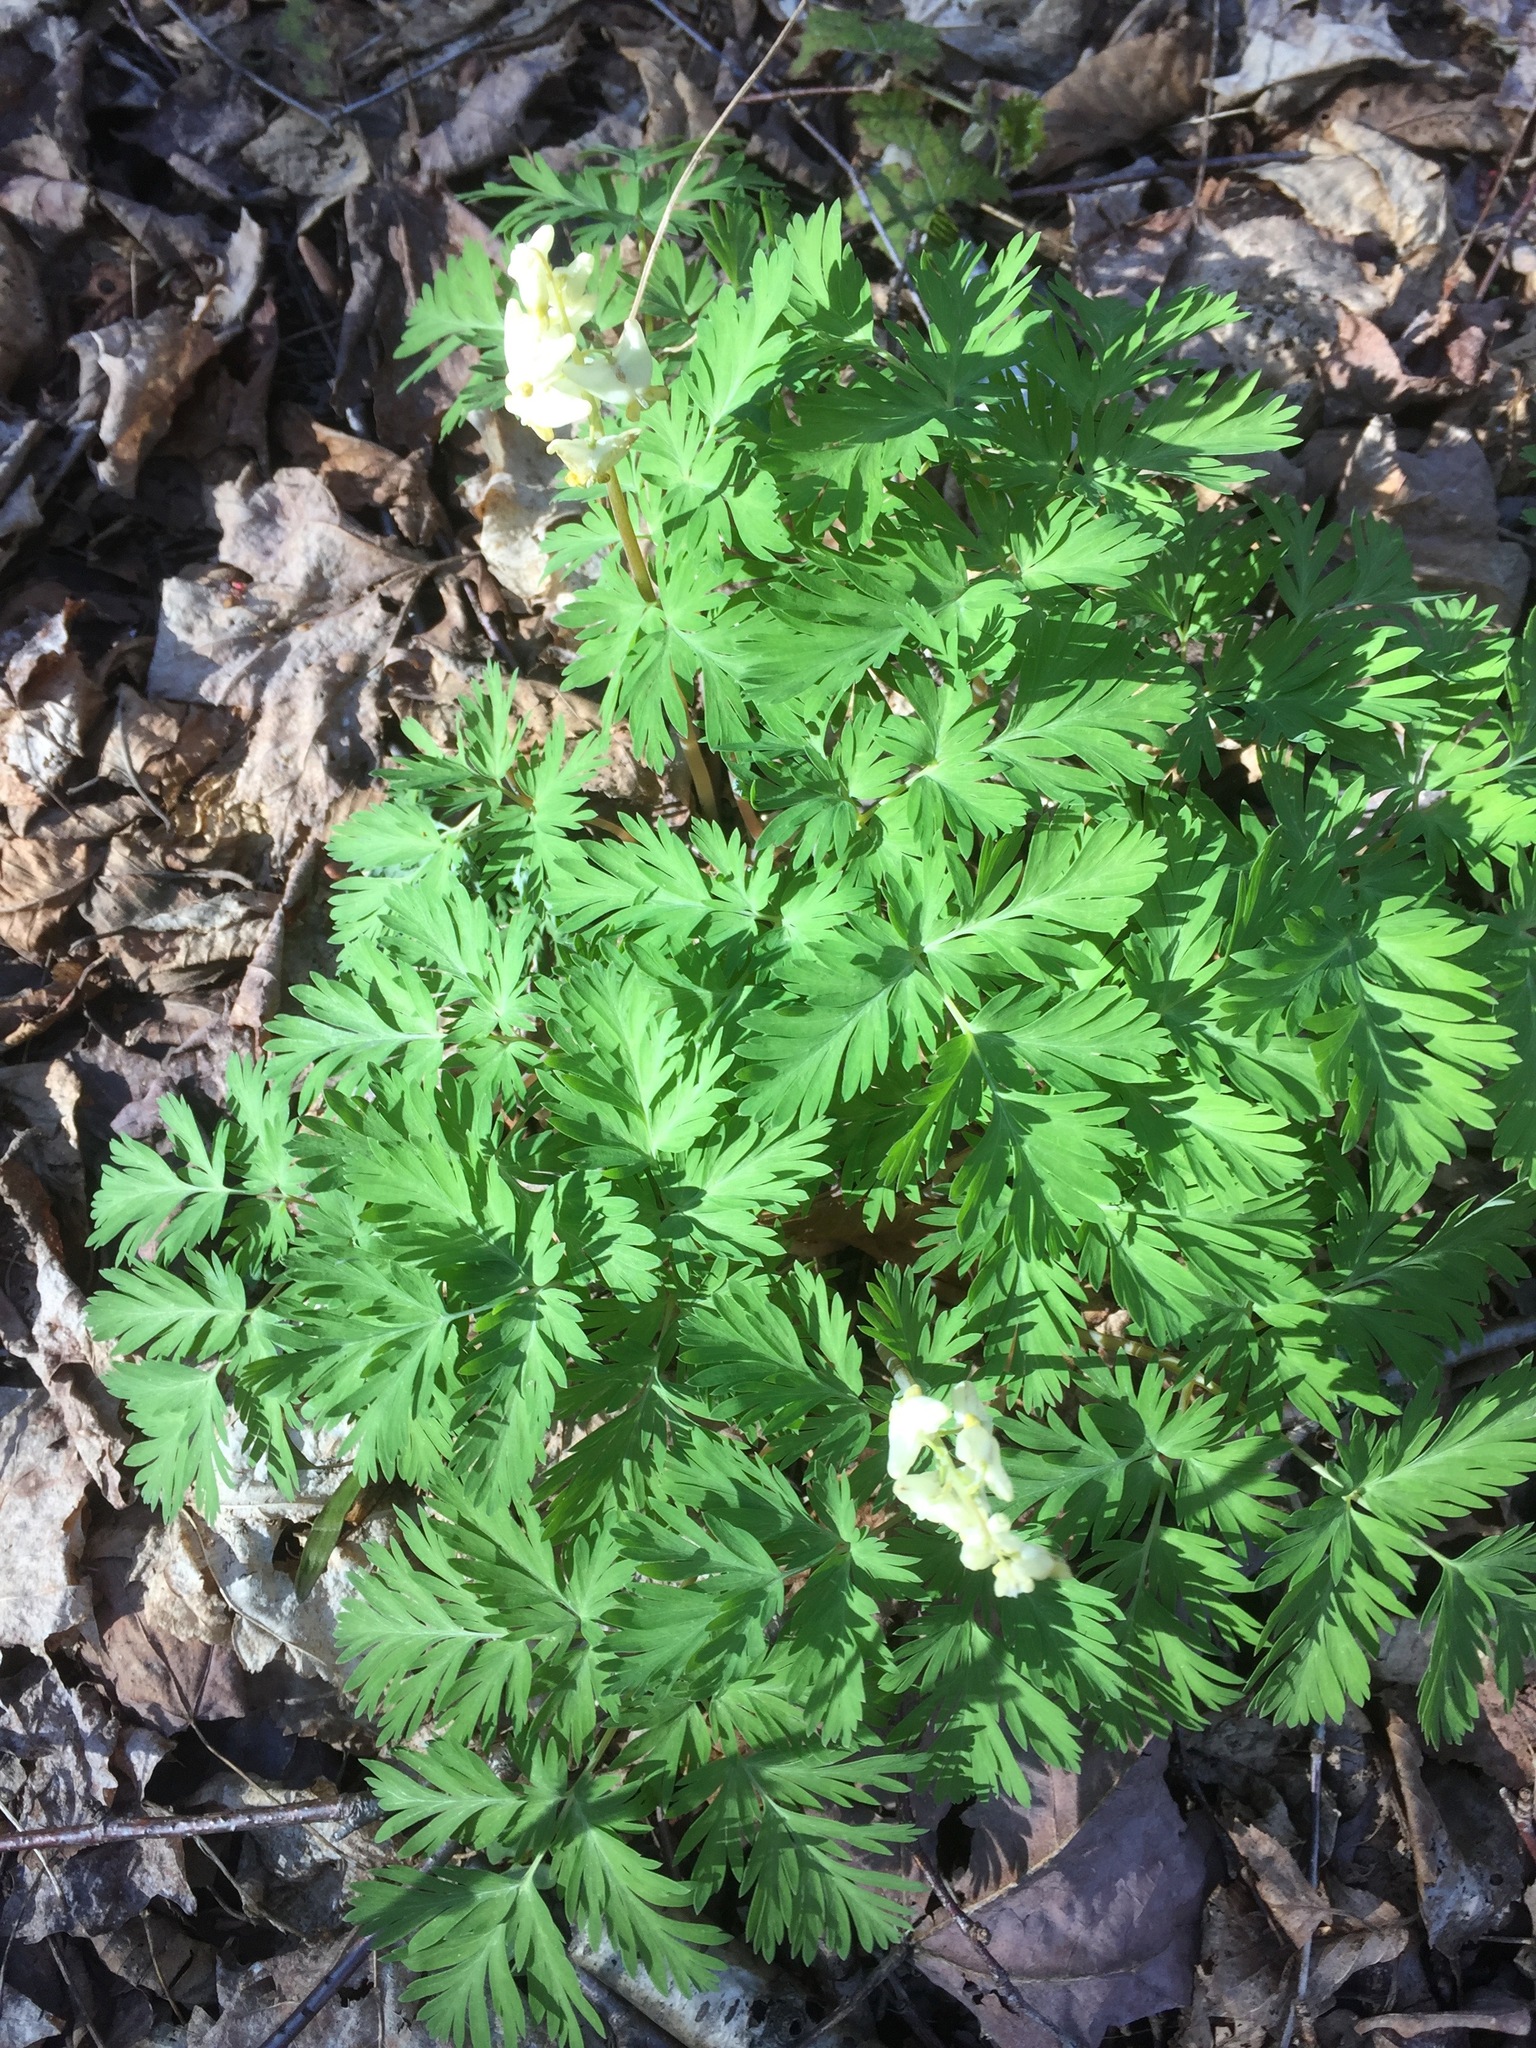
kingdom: Plantae
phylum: Tracheophyta
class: Magnoliopsida
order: Ranunculales
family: Papaveraceae
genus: Dicentra
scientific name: Dicentra cucullaria
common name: Dutchman's breeches
